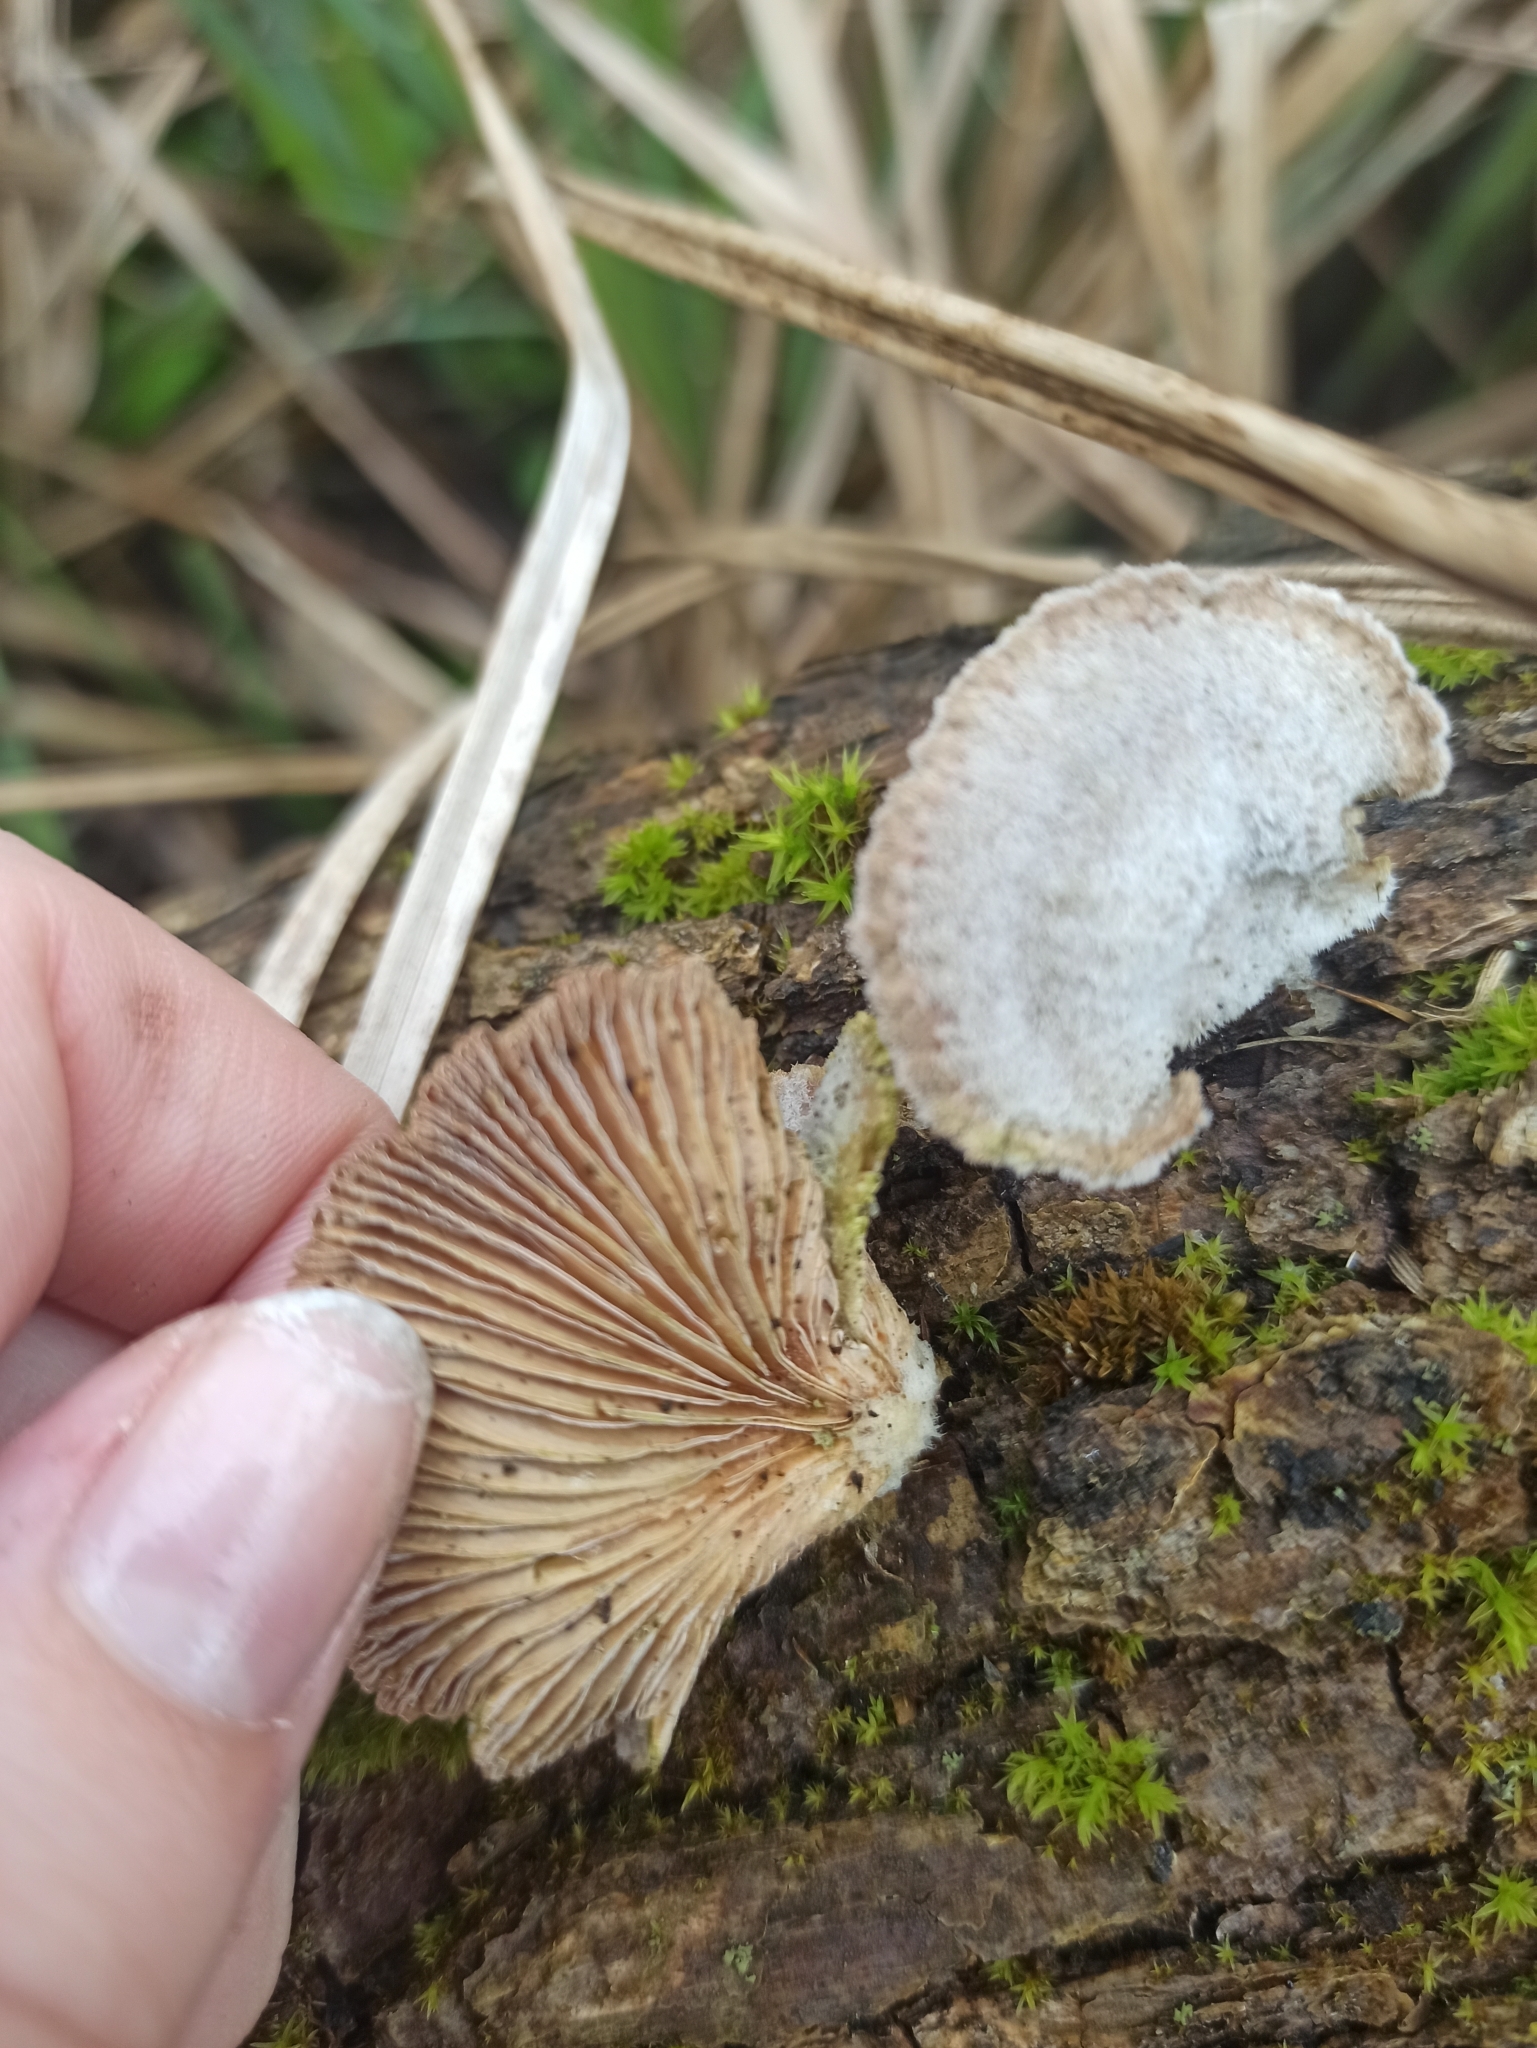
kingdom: Fungi
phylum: Basidiomycota
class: Agaricomycetes
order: Agaricales
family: Schizophyllaceae
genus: Schizophyllum
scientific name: Schizophyllum commune
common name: Common porecrust
